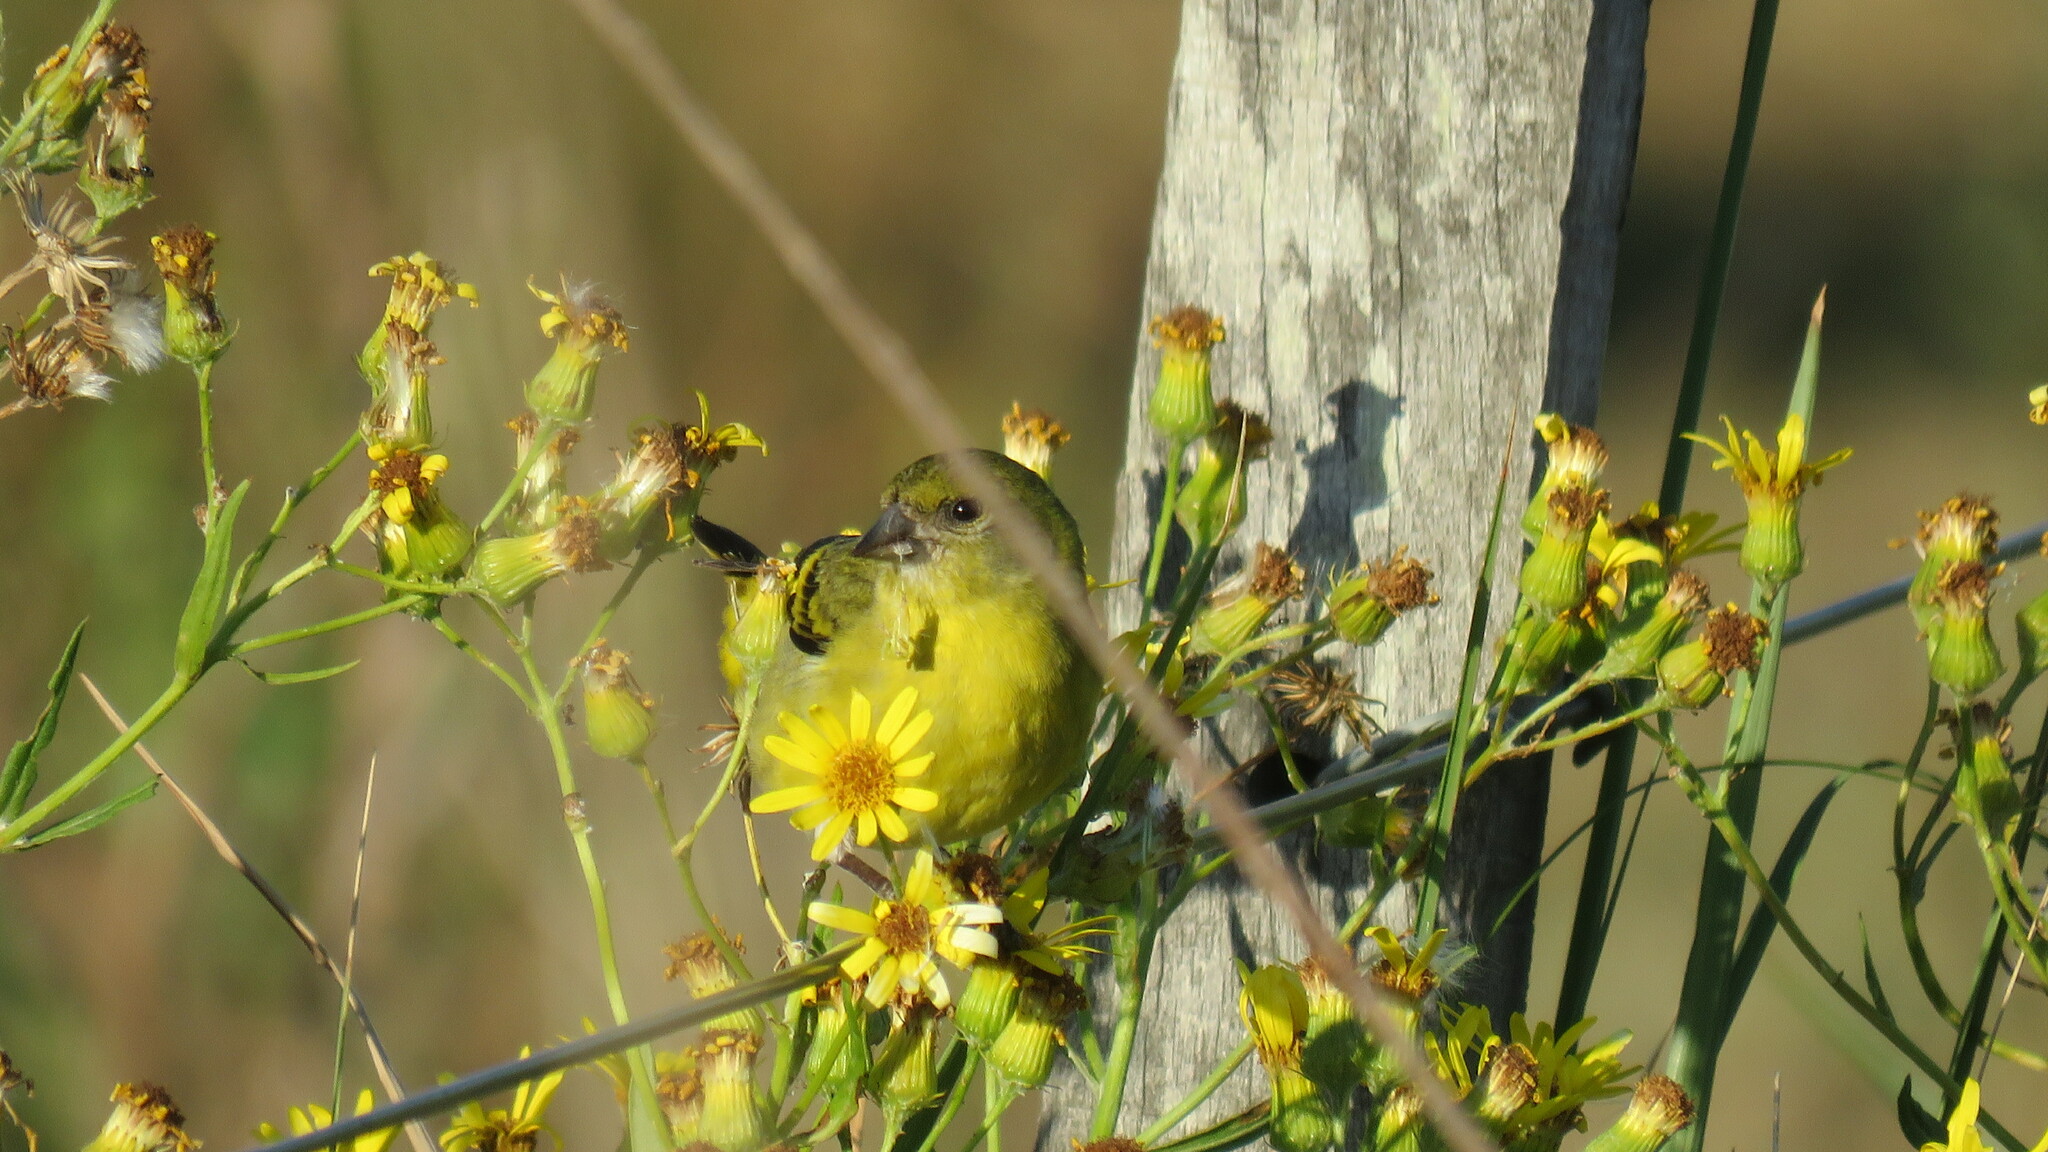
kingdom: Animalia
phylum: Chordata
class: Aves
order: Passeriformes
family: Fringillidae
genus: Spinus
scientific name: Spinus magellanicus
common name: Hooded siskin
